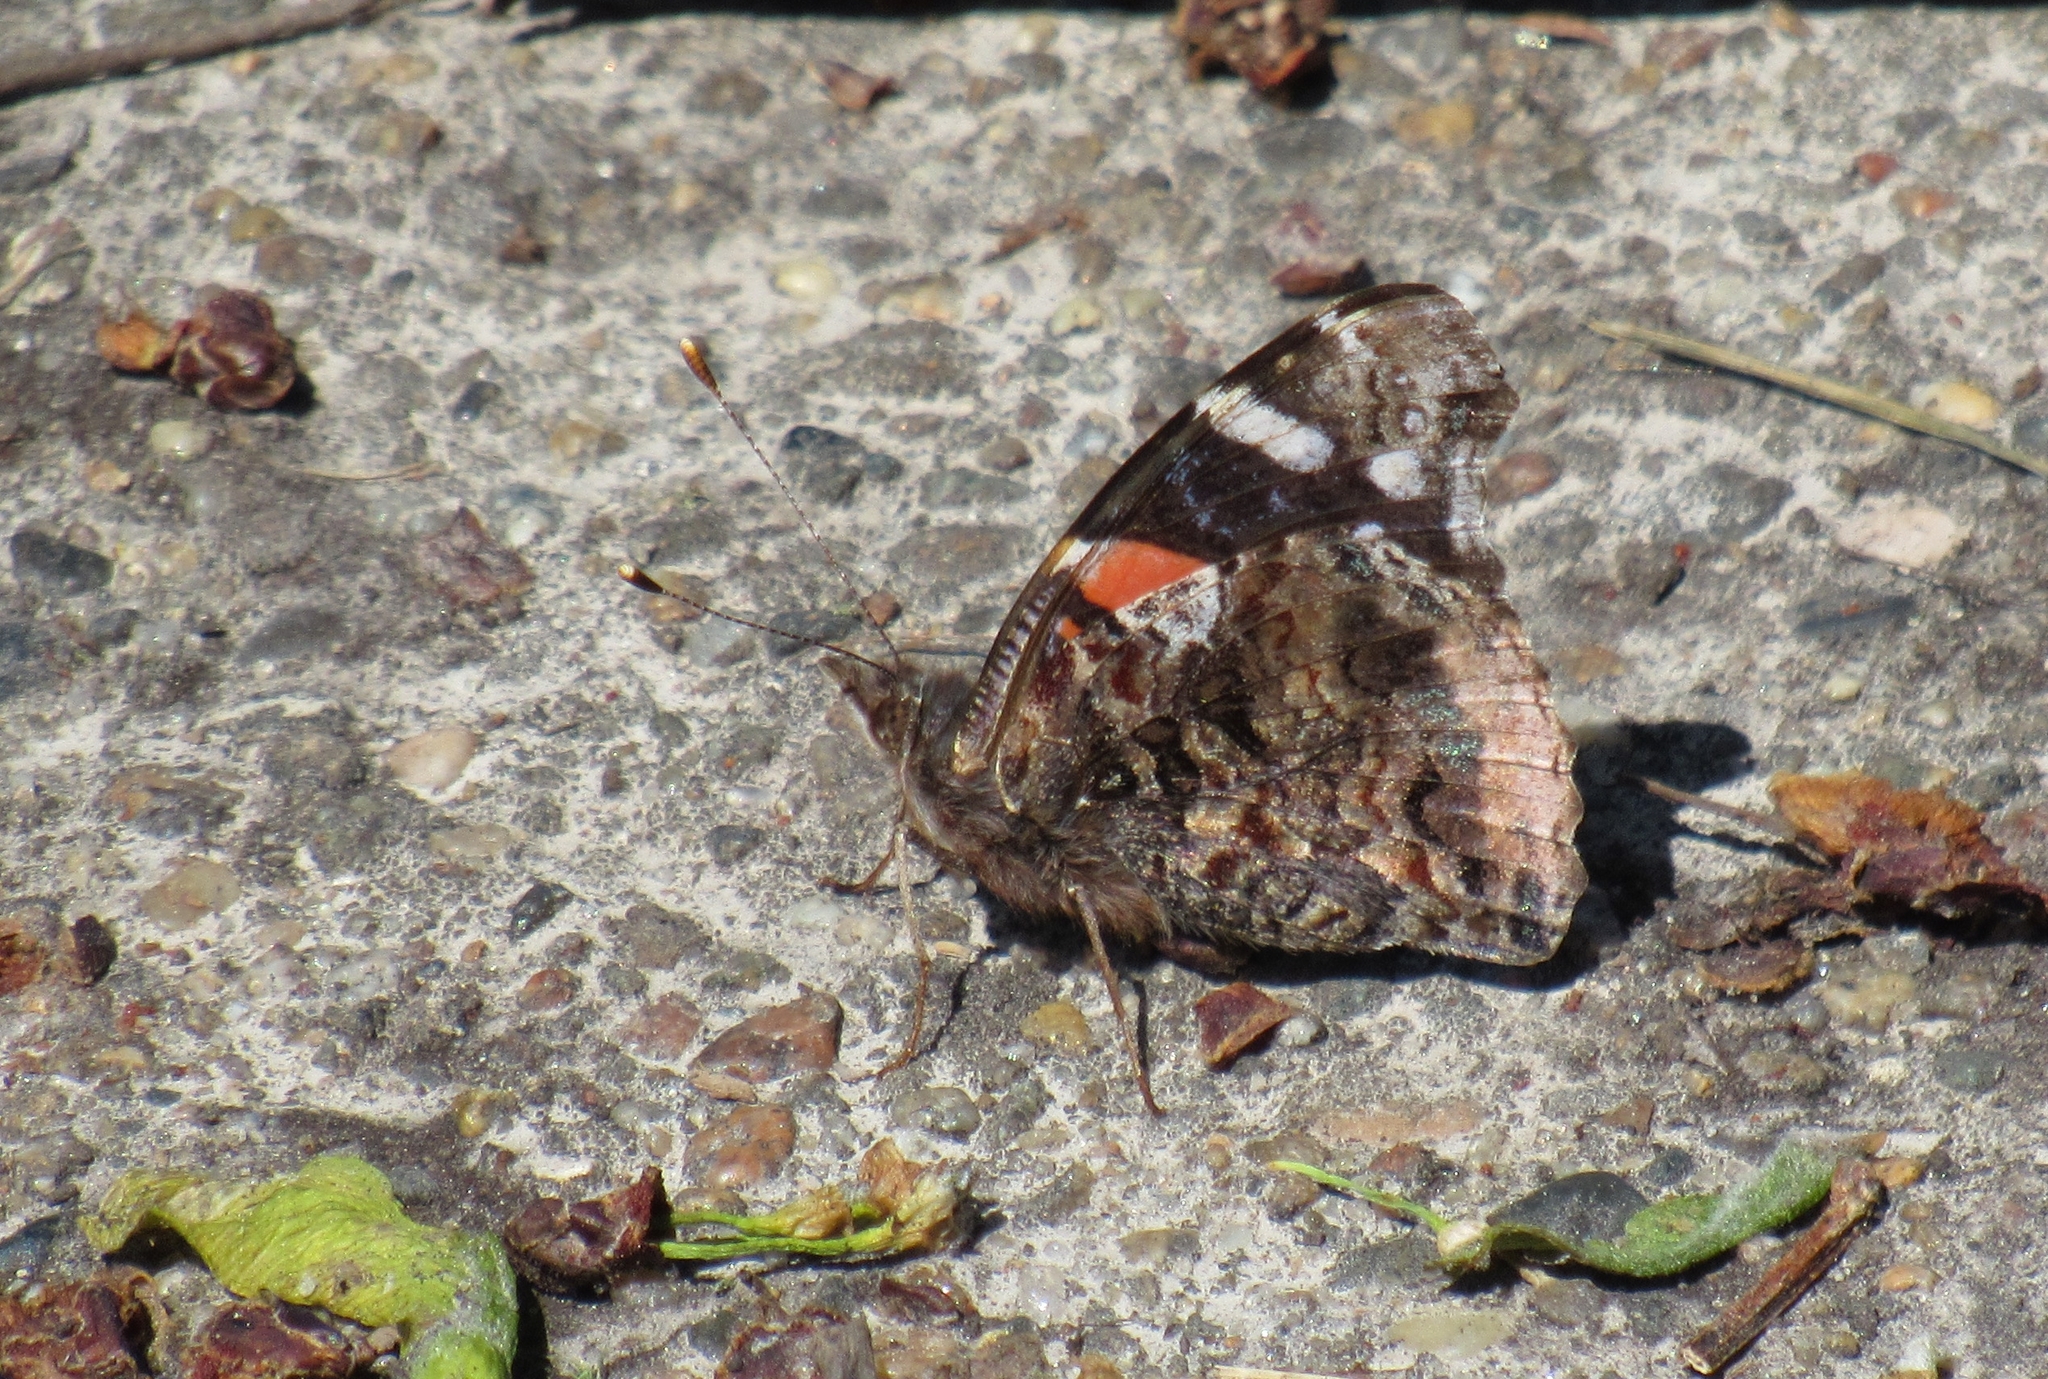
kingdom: Animalia
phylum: Arthropoda
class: Insecta
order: Lepidoptera
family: Nymphalidae
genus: Vanessa
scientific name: Vanessa atalanta
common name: Red admiral
